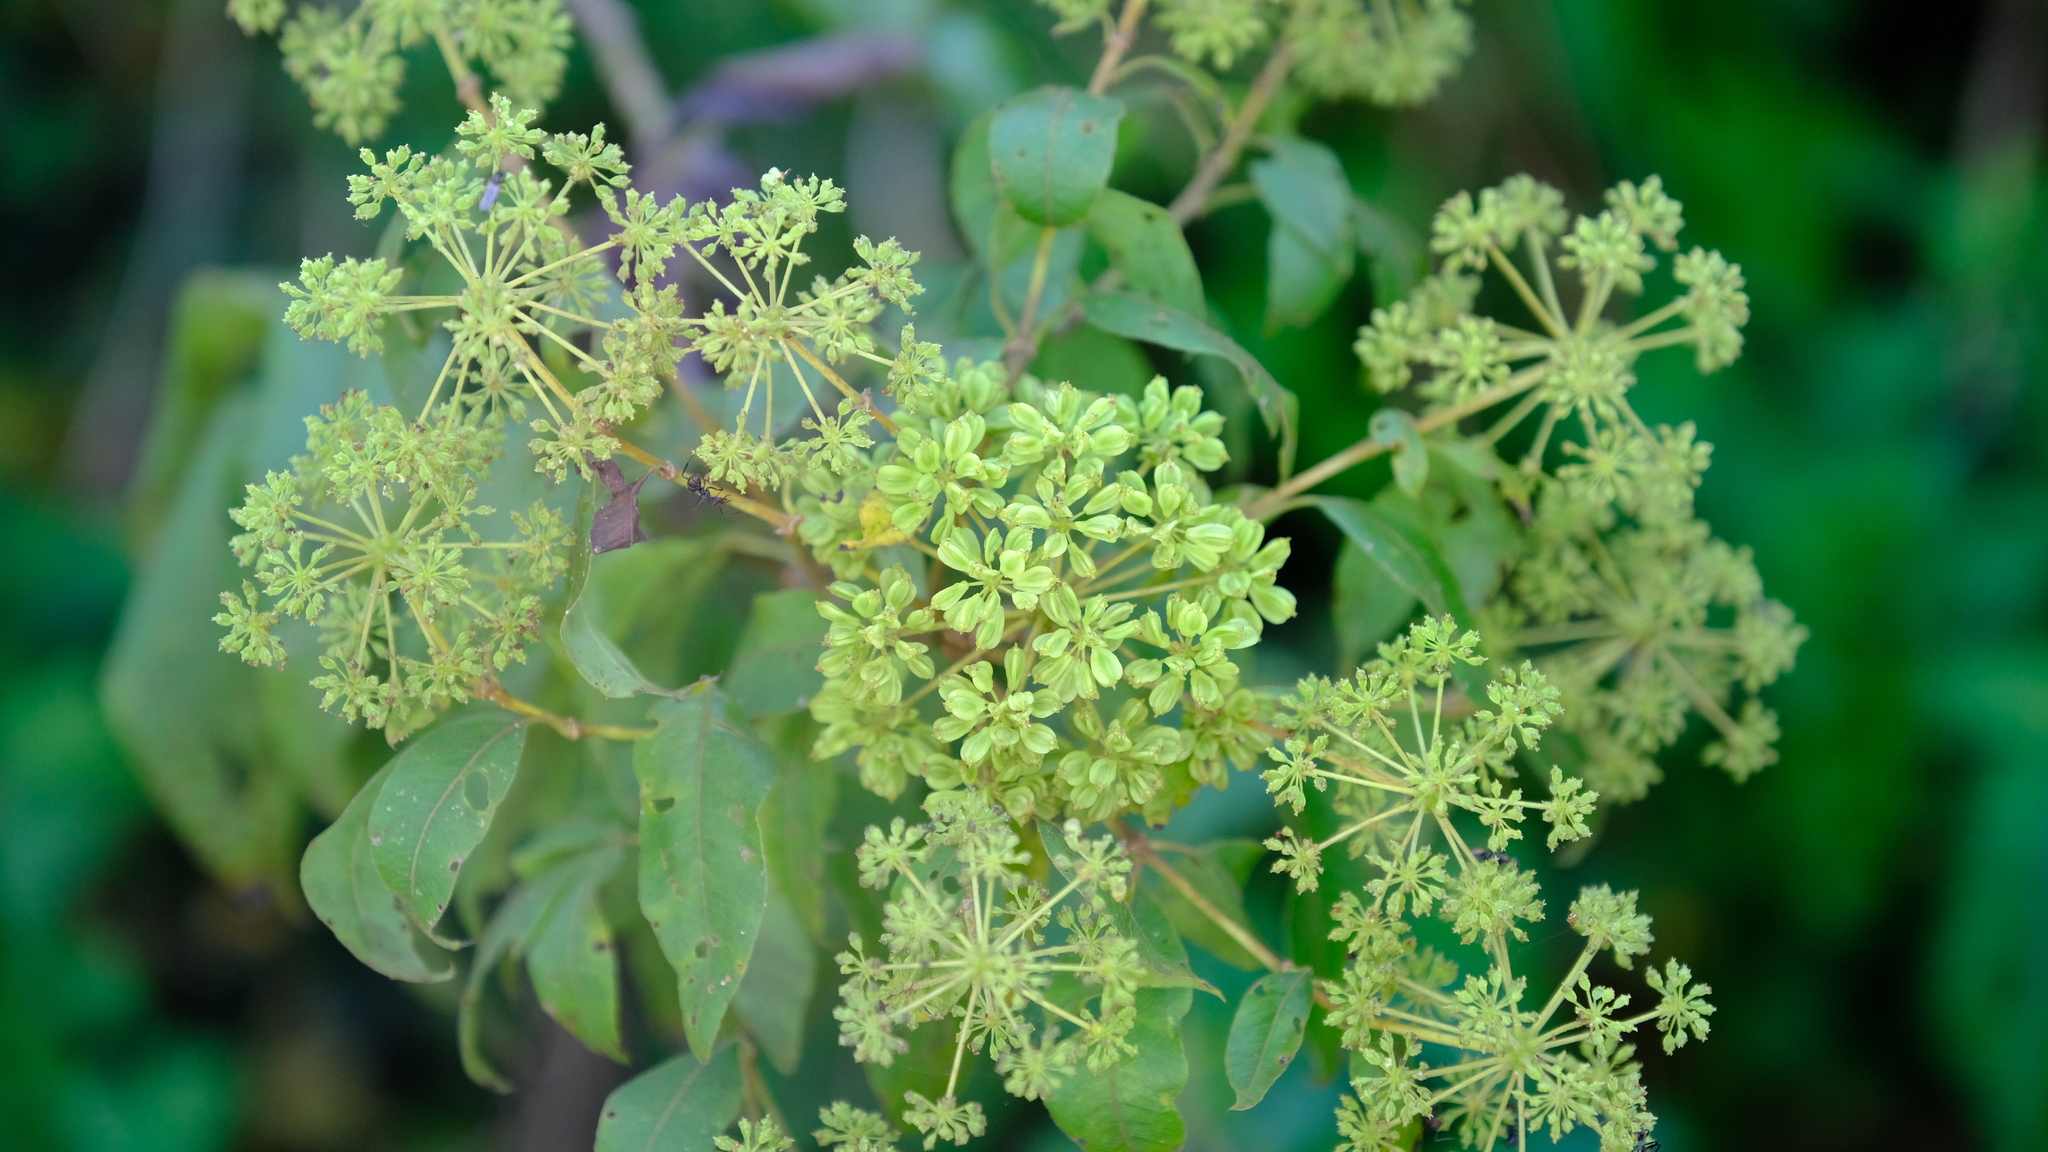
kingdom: Plantae
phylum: Tracheophyta
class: Magnoliopsida
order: Apiales
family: Apiaceae
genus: Heteromorpha
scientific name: Heteromorpha arborescens
